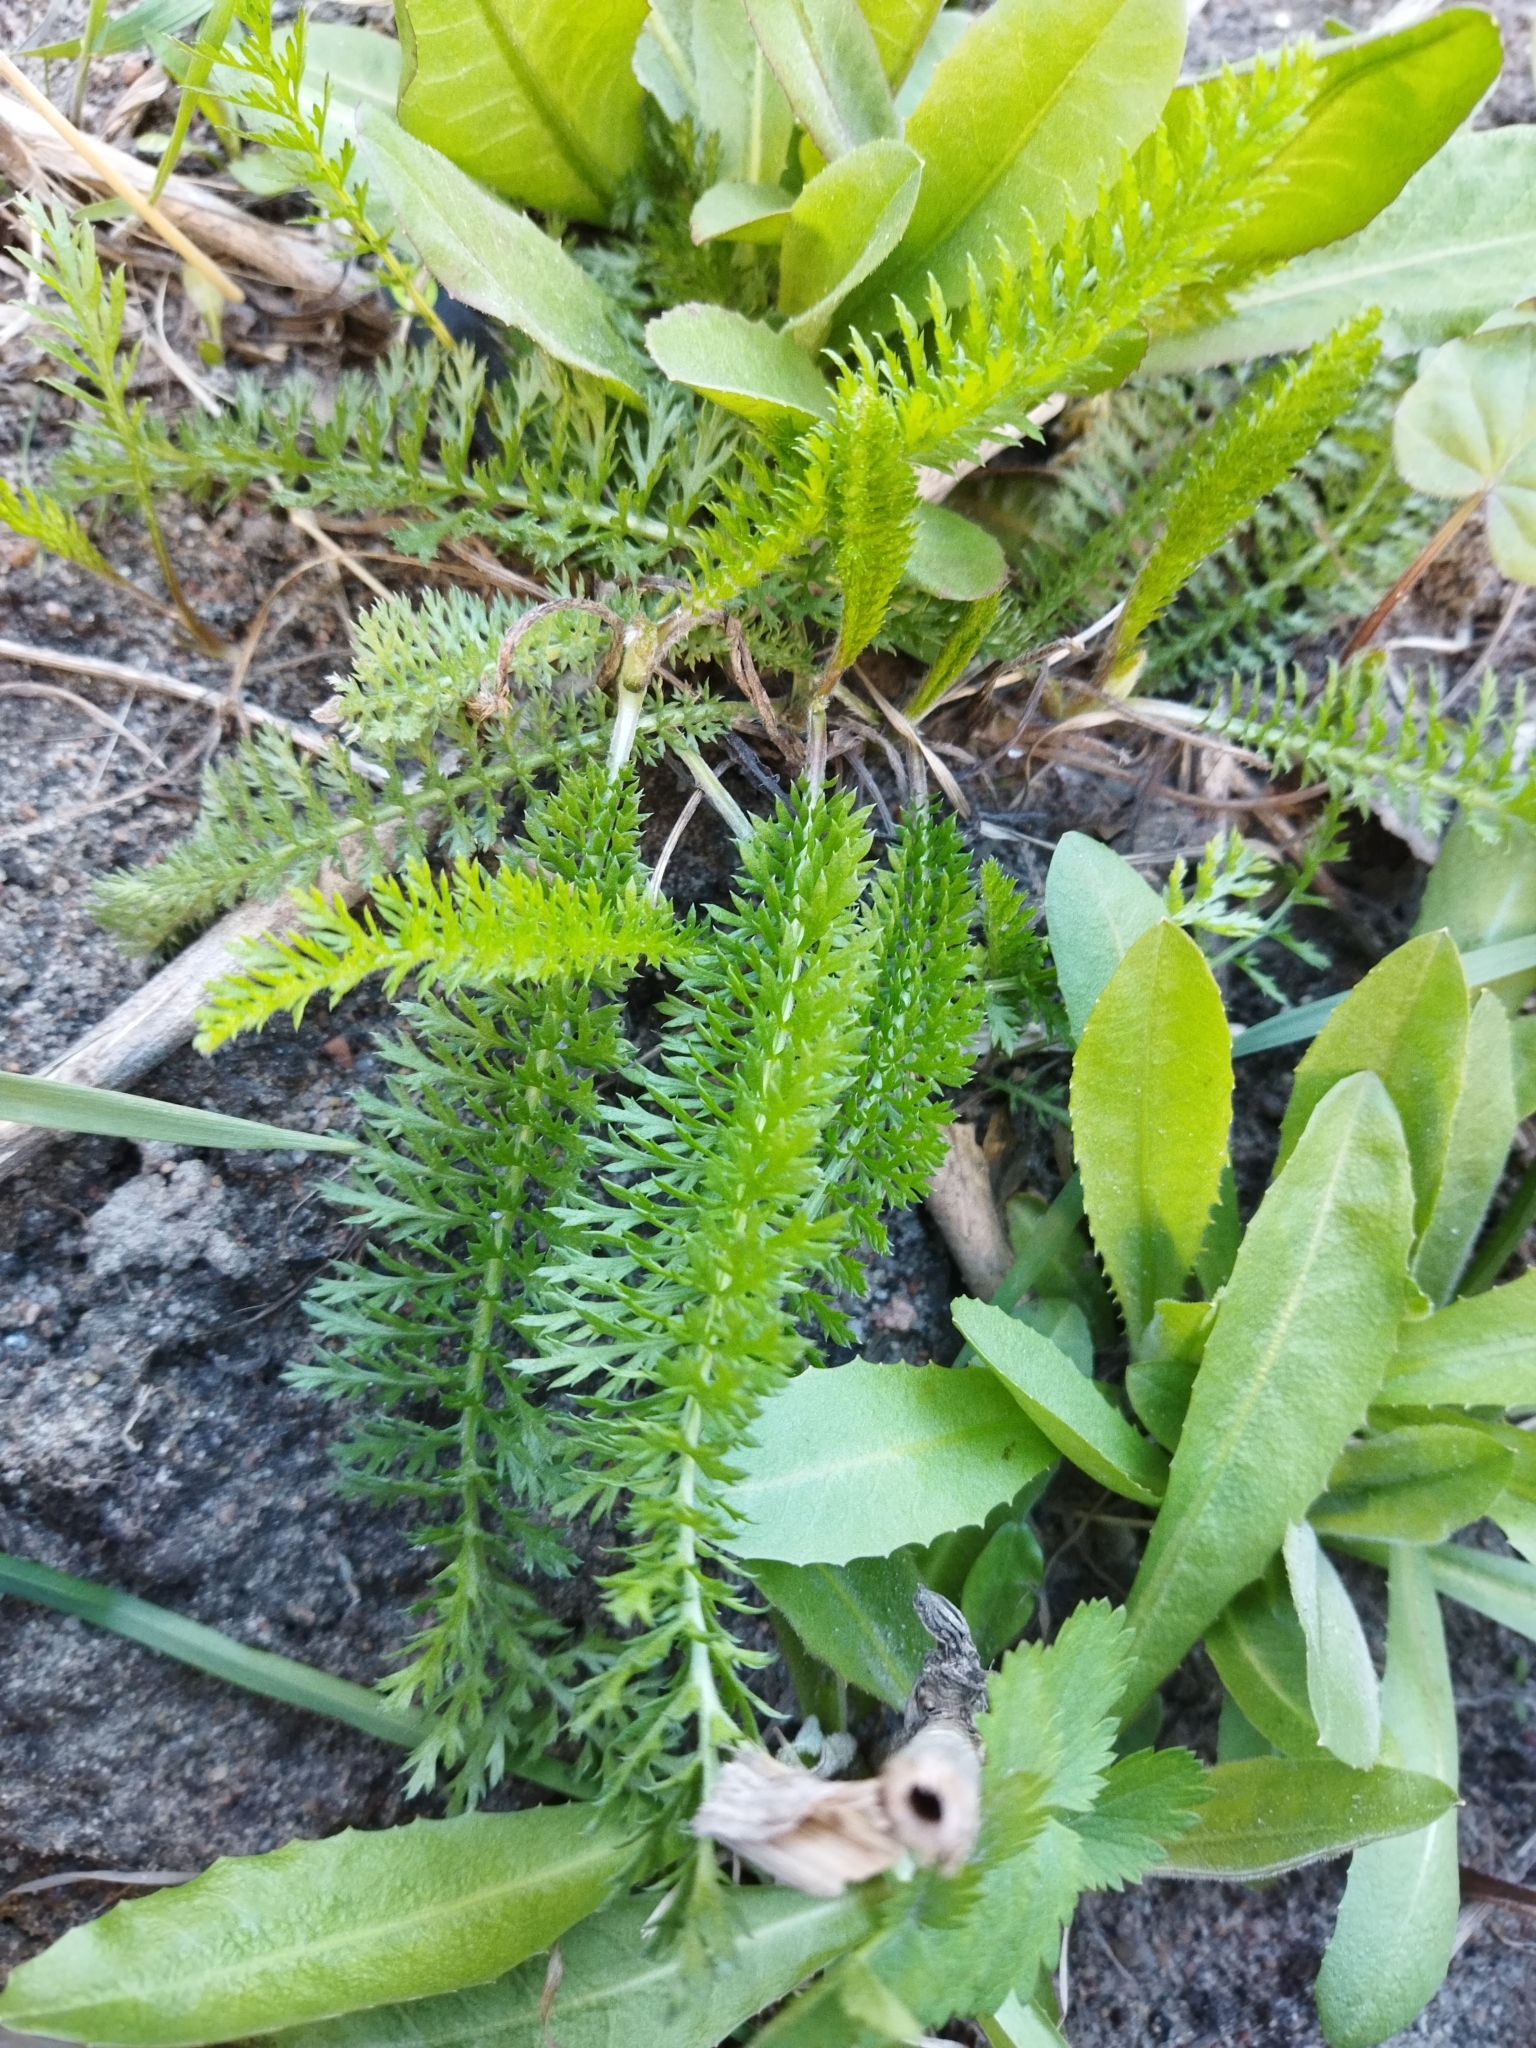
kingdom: Plantae
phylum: Tracheophyta
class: Magnoliopsida
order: Asterales
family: Asteraceae
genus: Achillea
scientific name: Achillea millefolium
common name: Yarrow
